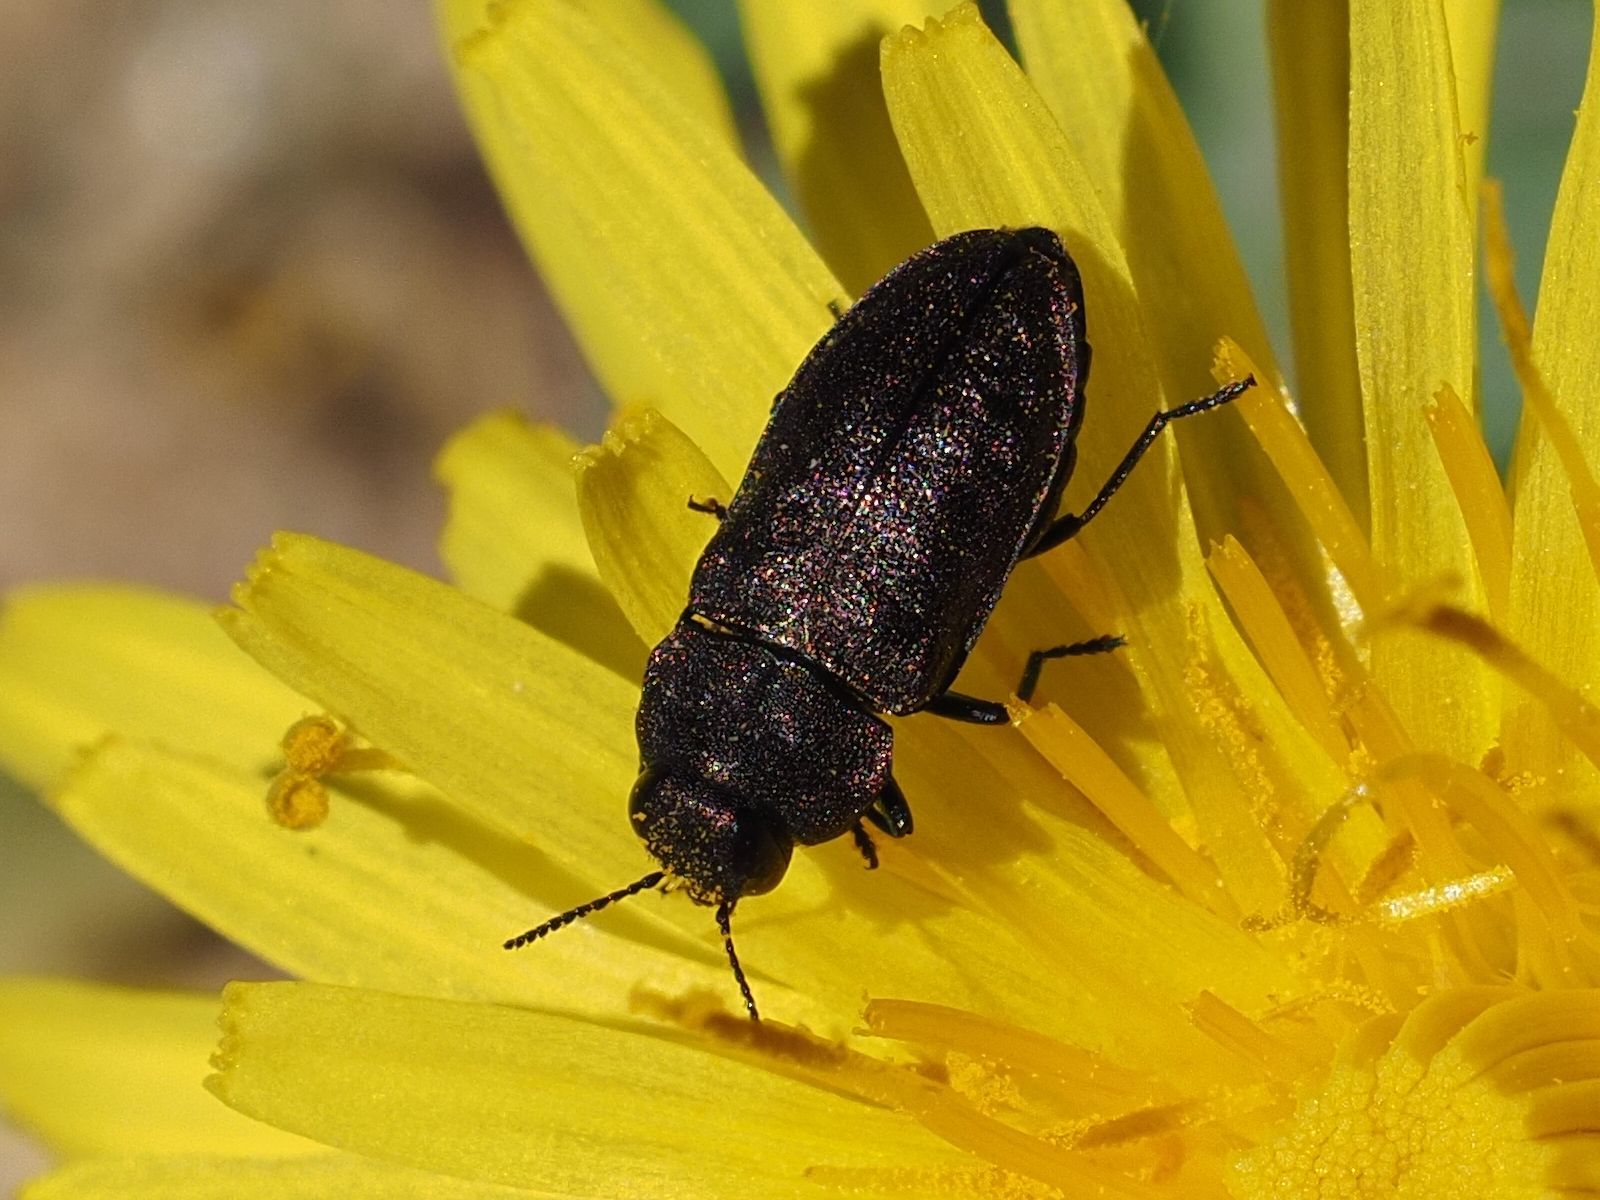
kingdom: Animalia
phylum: Arthropoda
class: Insecta
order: Coleoptera
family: Buprestidae
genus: Anthaxia
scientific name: Anthaxia helvetica
